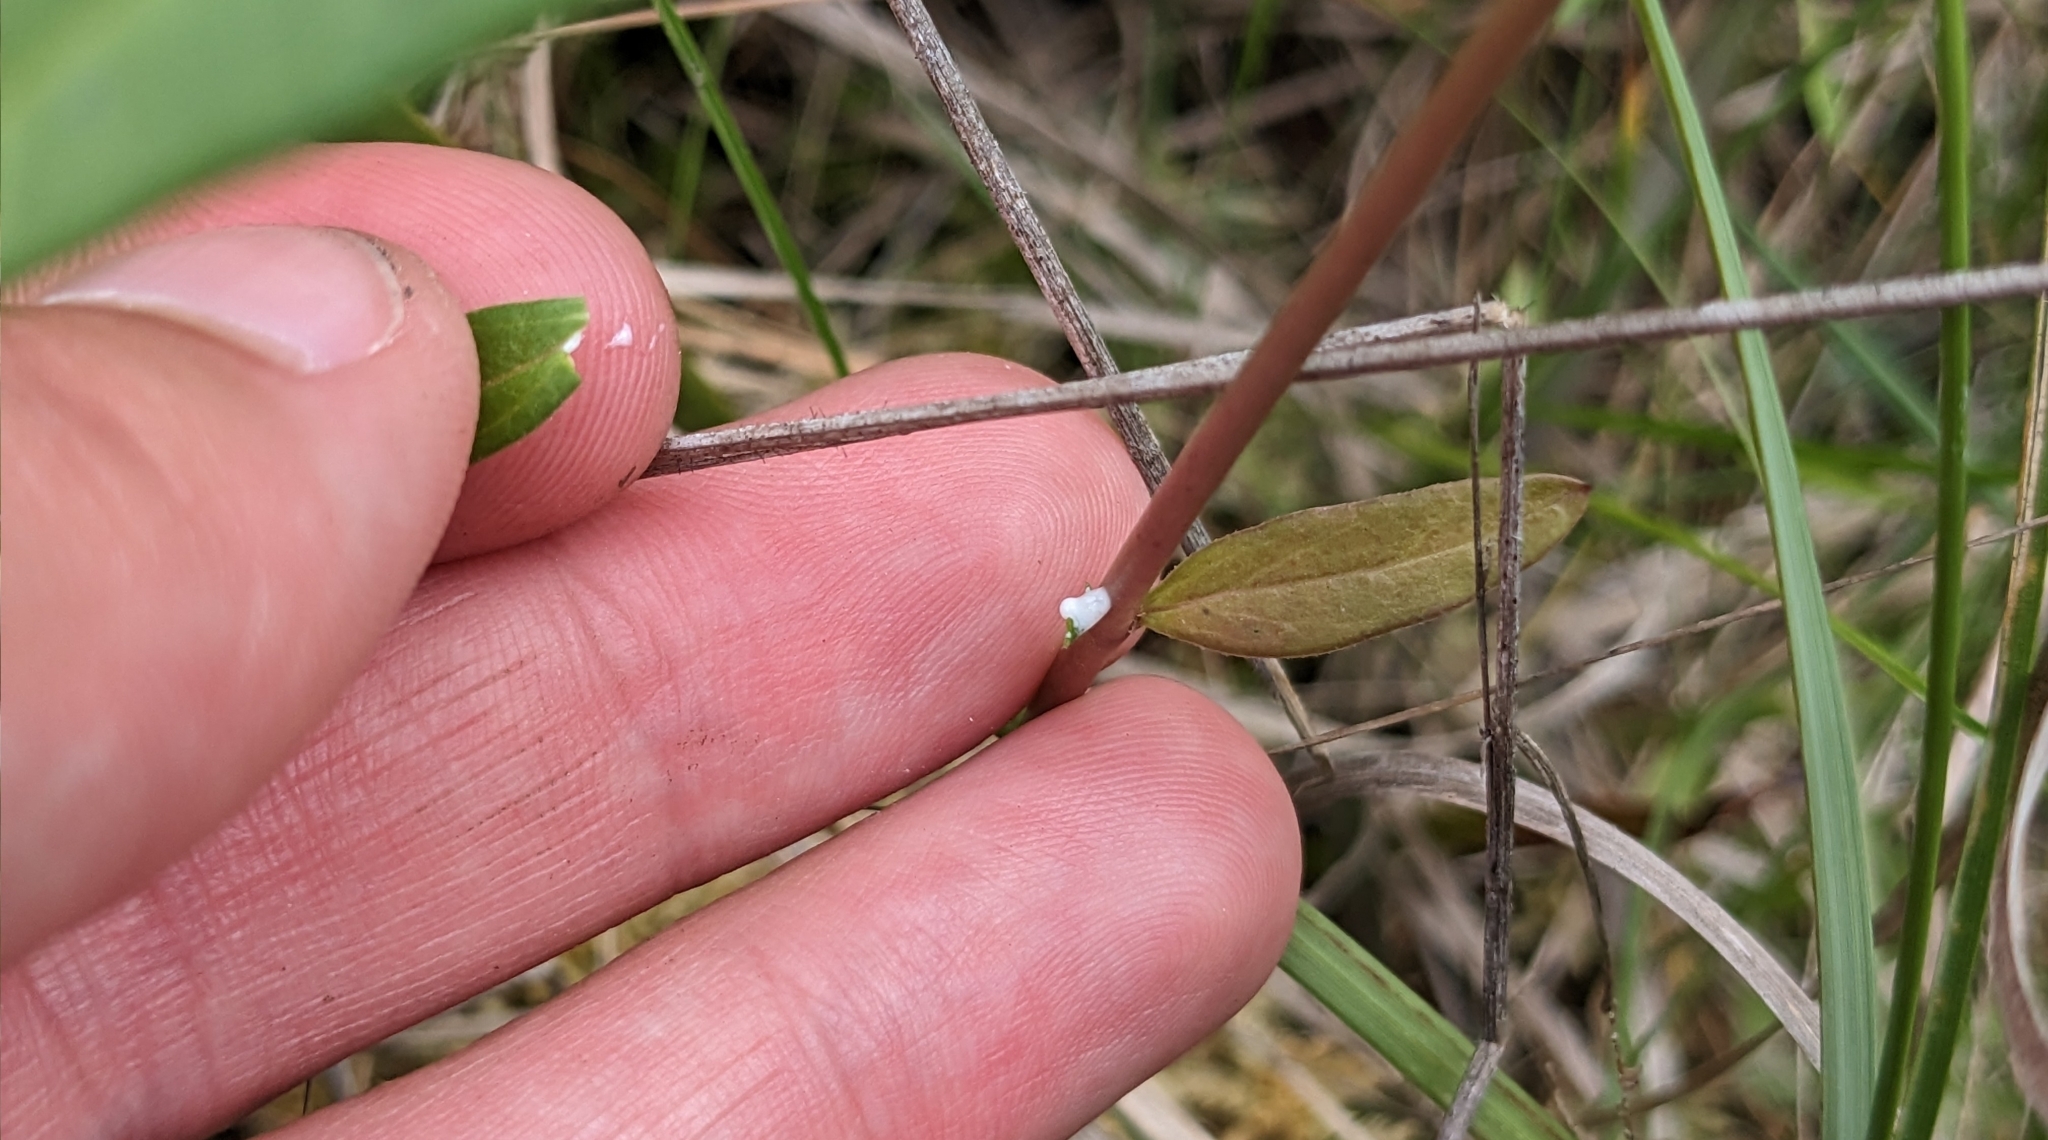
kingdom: Plantae
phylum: Tracheophyta
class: Magnoliopsida
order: Gentianales
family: Apocynaceae
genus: Asclepias
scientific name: Asclepias rubra
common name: Red milkweed
